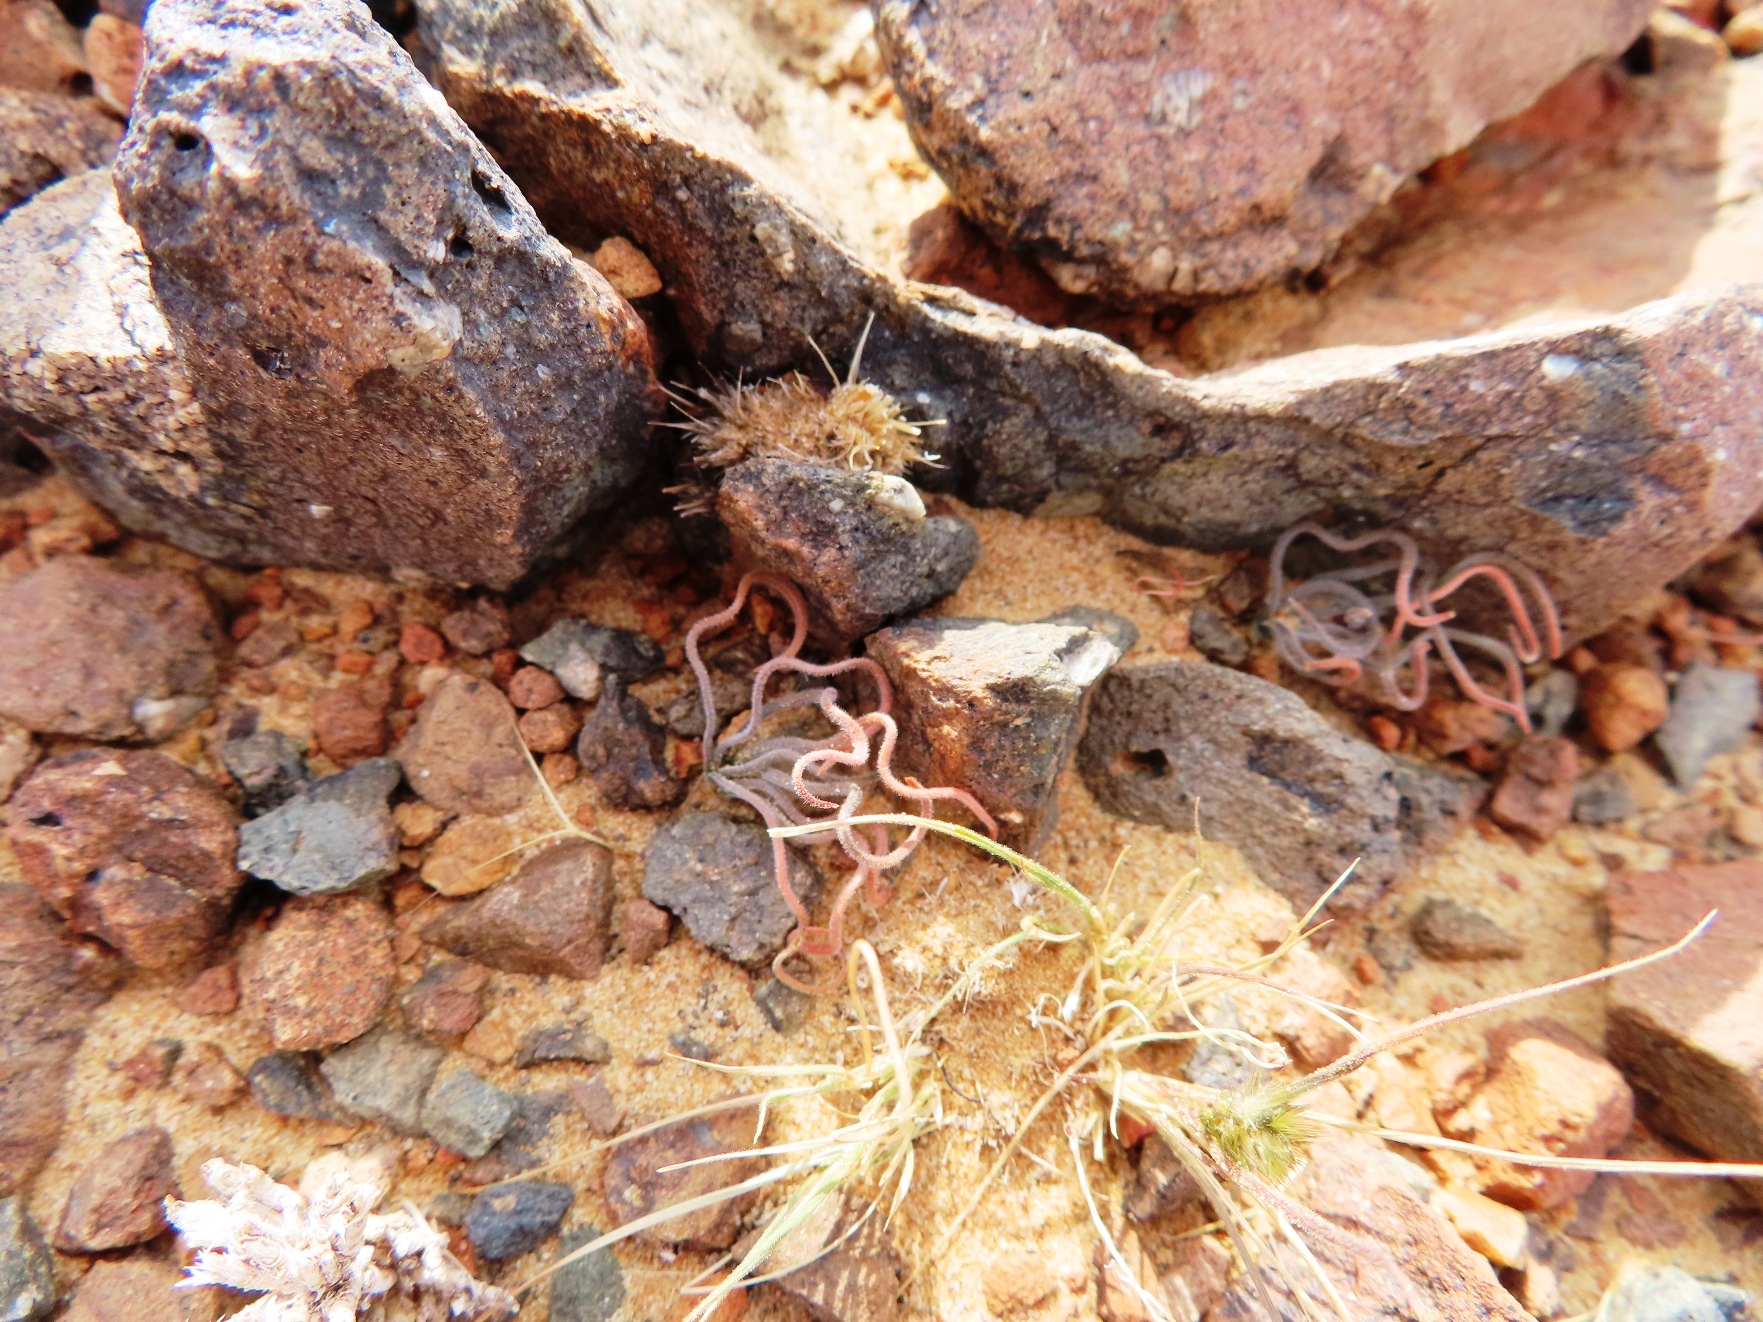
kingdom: Plantae
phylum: Tracheophyta
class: Liliopsida
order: Asparagales
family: Asphodelaceae
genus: Trachyandra
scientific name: Trachyandra jacquiniana
